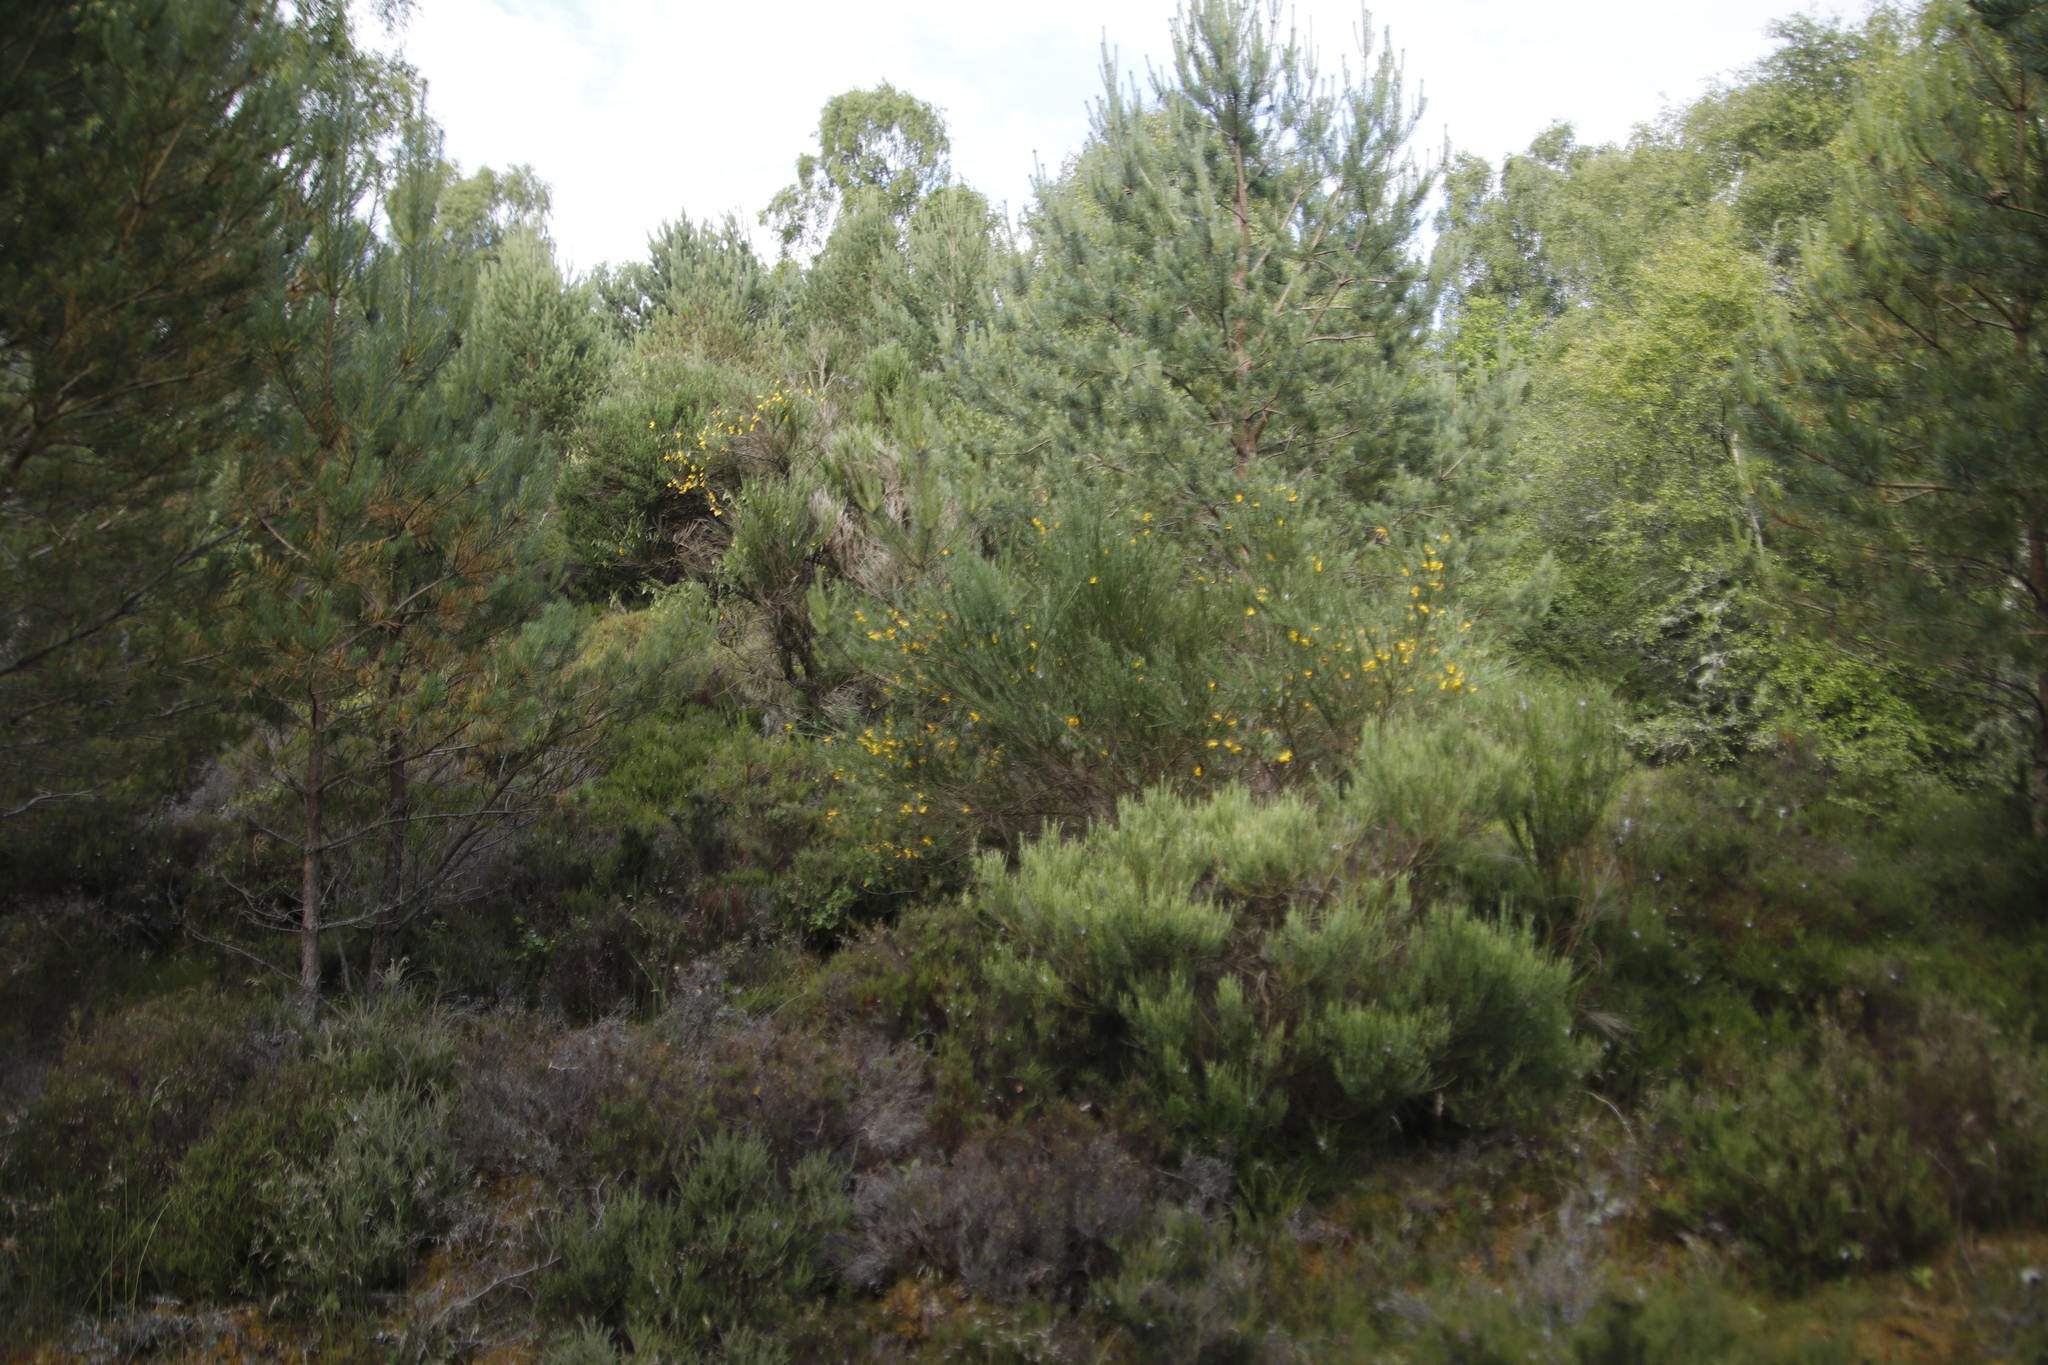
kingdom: Plantae
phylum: Tracheophyta
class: Magnoliopsida
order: Fabales
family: Fabaceae
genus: Cytisus
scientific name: Cytisus scoparius
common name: Scotch broom
